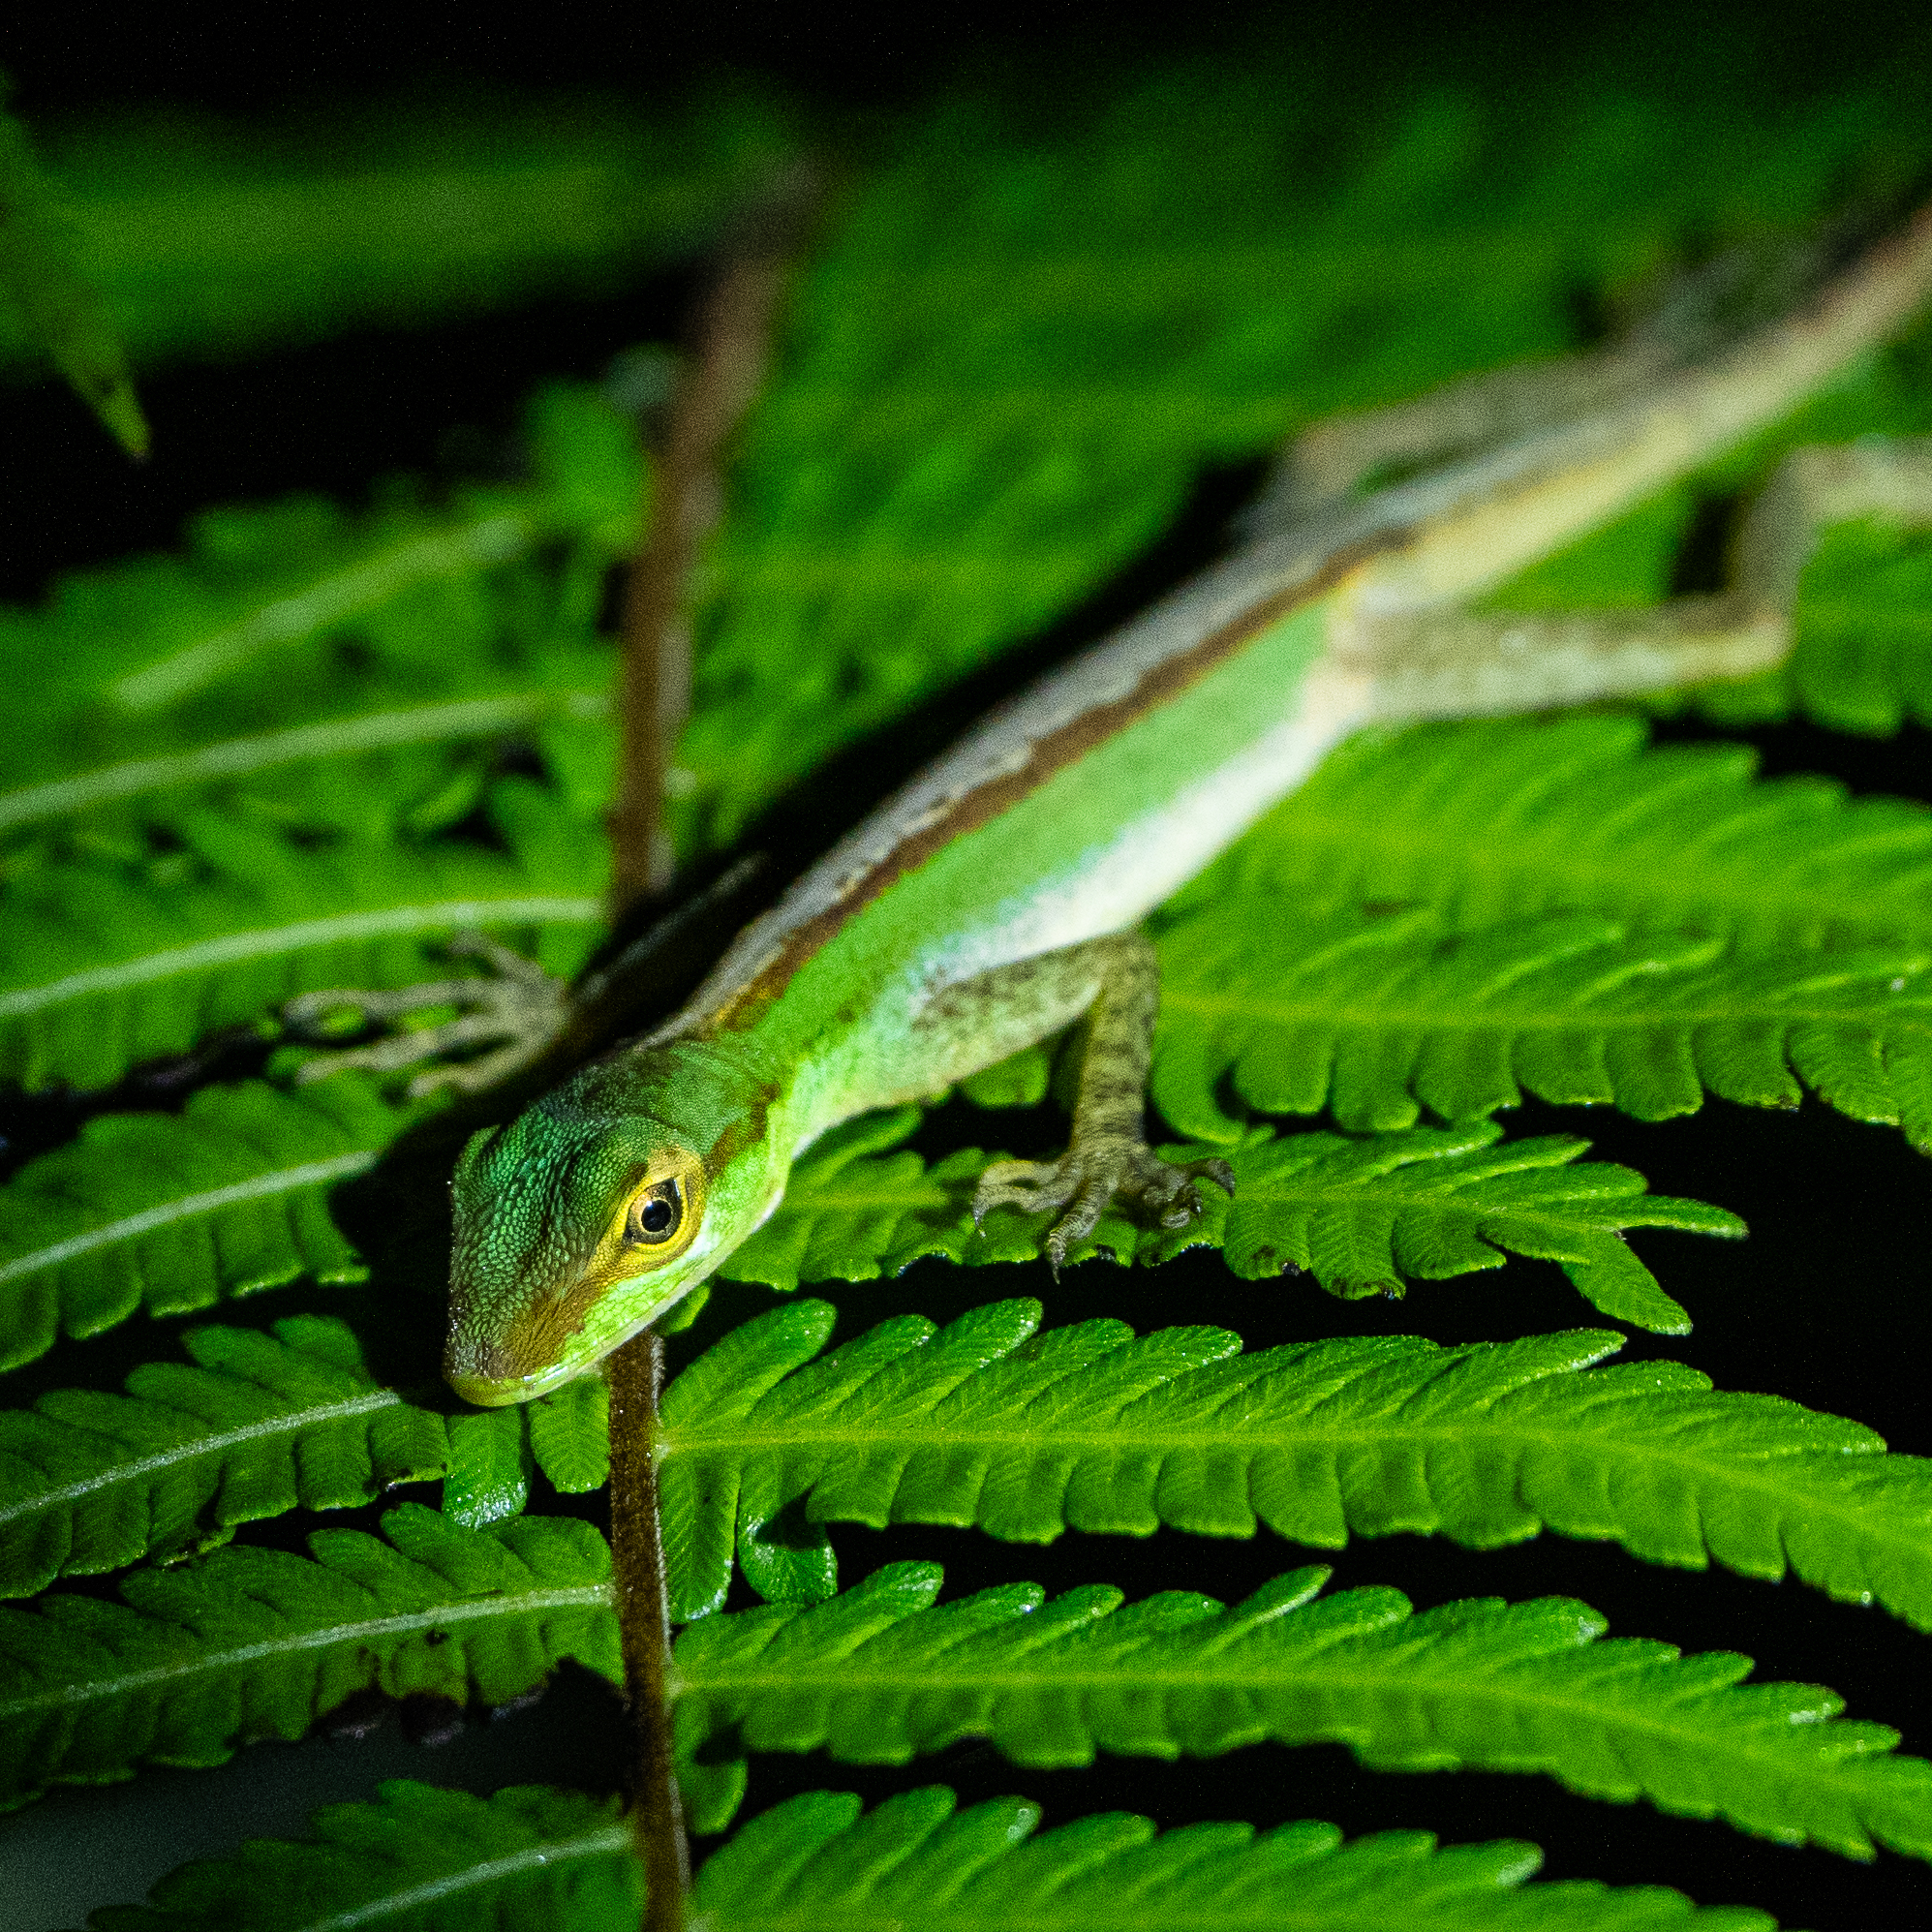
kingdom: Animalia
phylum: Chordata
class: Squamata
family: Dactyloidae
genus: Anolis
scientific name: Anolis ventrimaculatus
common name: Speckled anole
